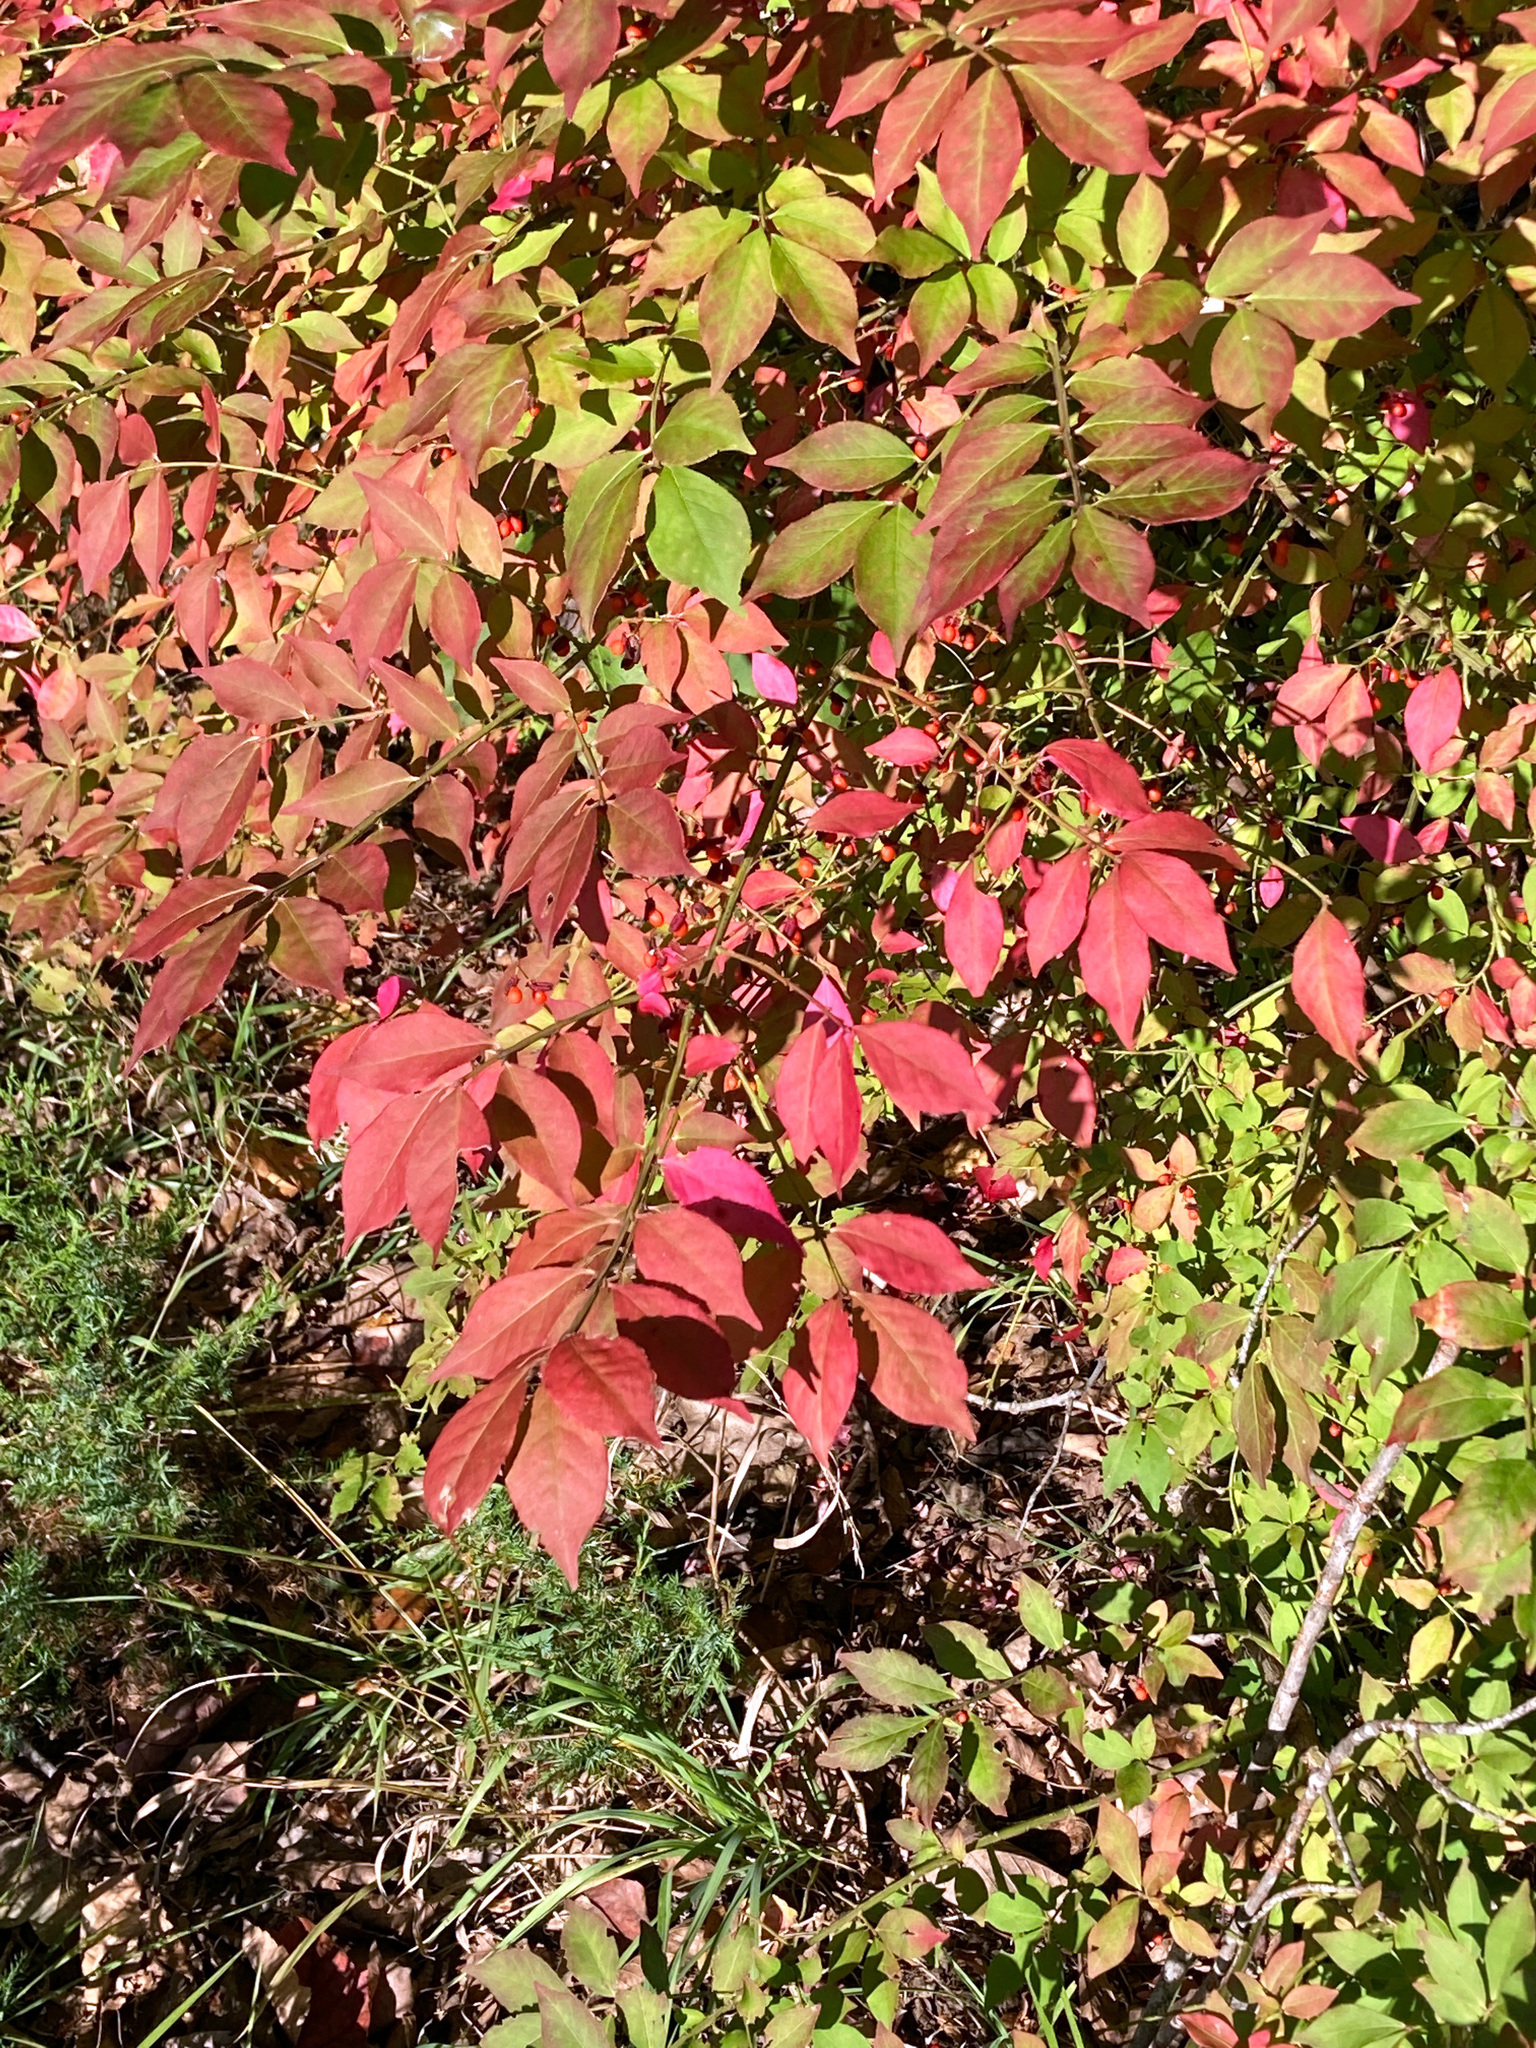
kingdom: Plantae
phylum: Tracheophyta
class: Magnoliopsida
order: Celastrales
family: Celastraceae
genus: Euonymus
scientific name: Euonymus alatus
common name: Winged euonymus
